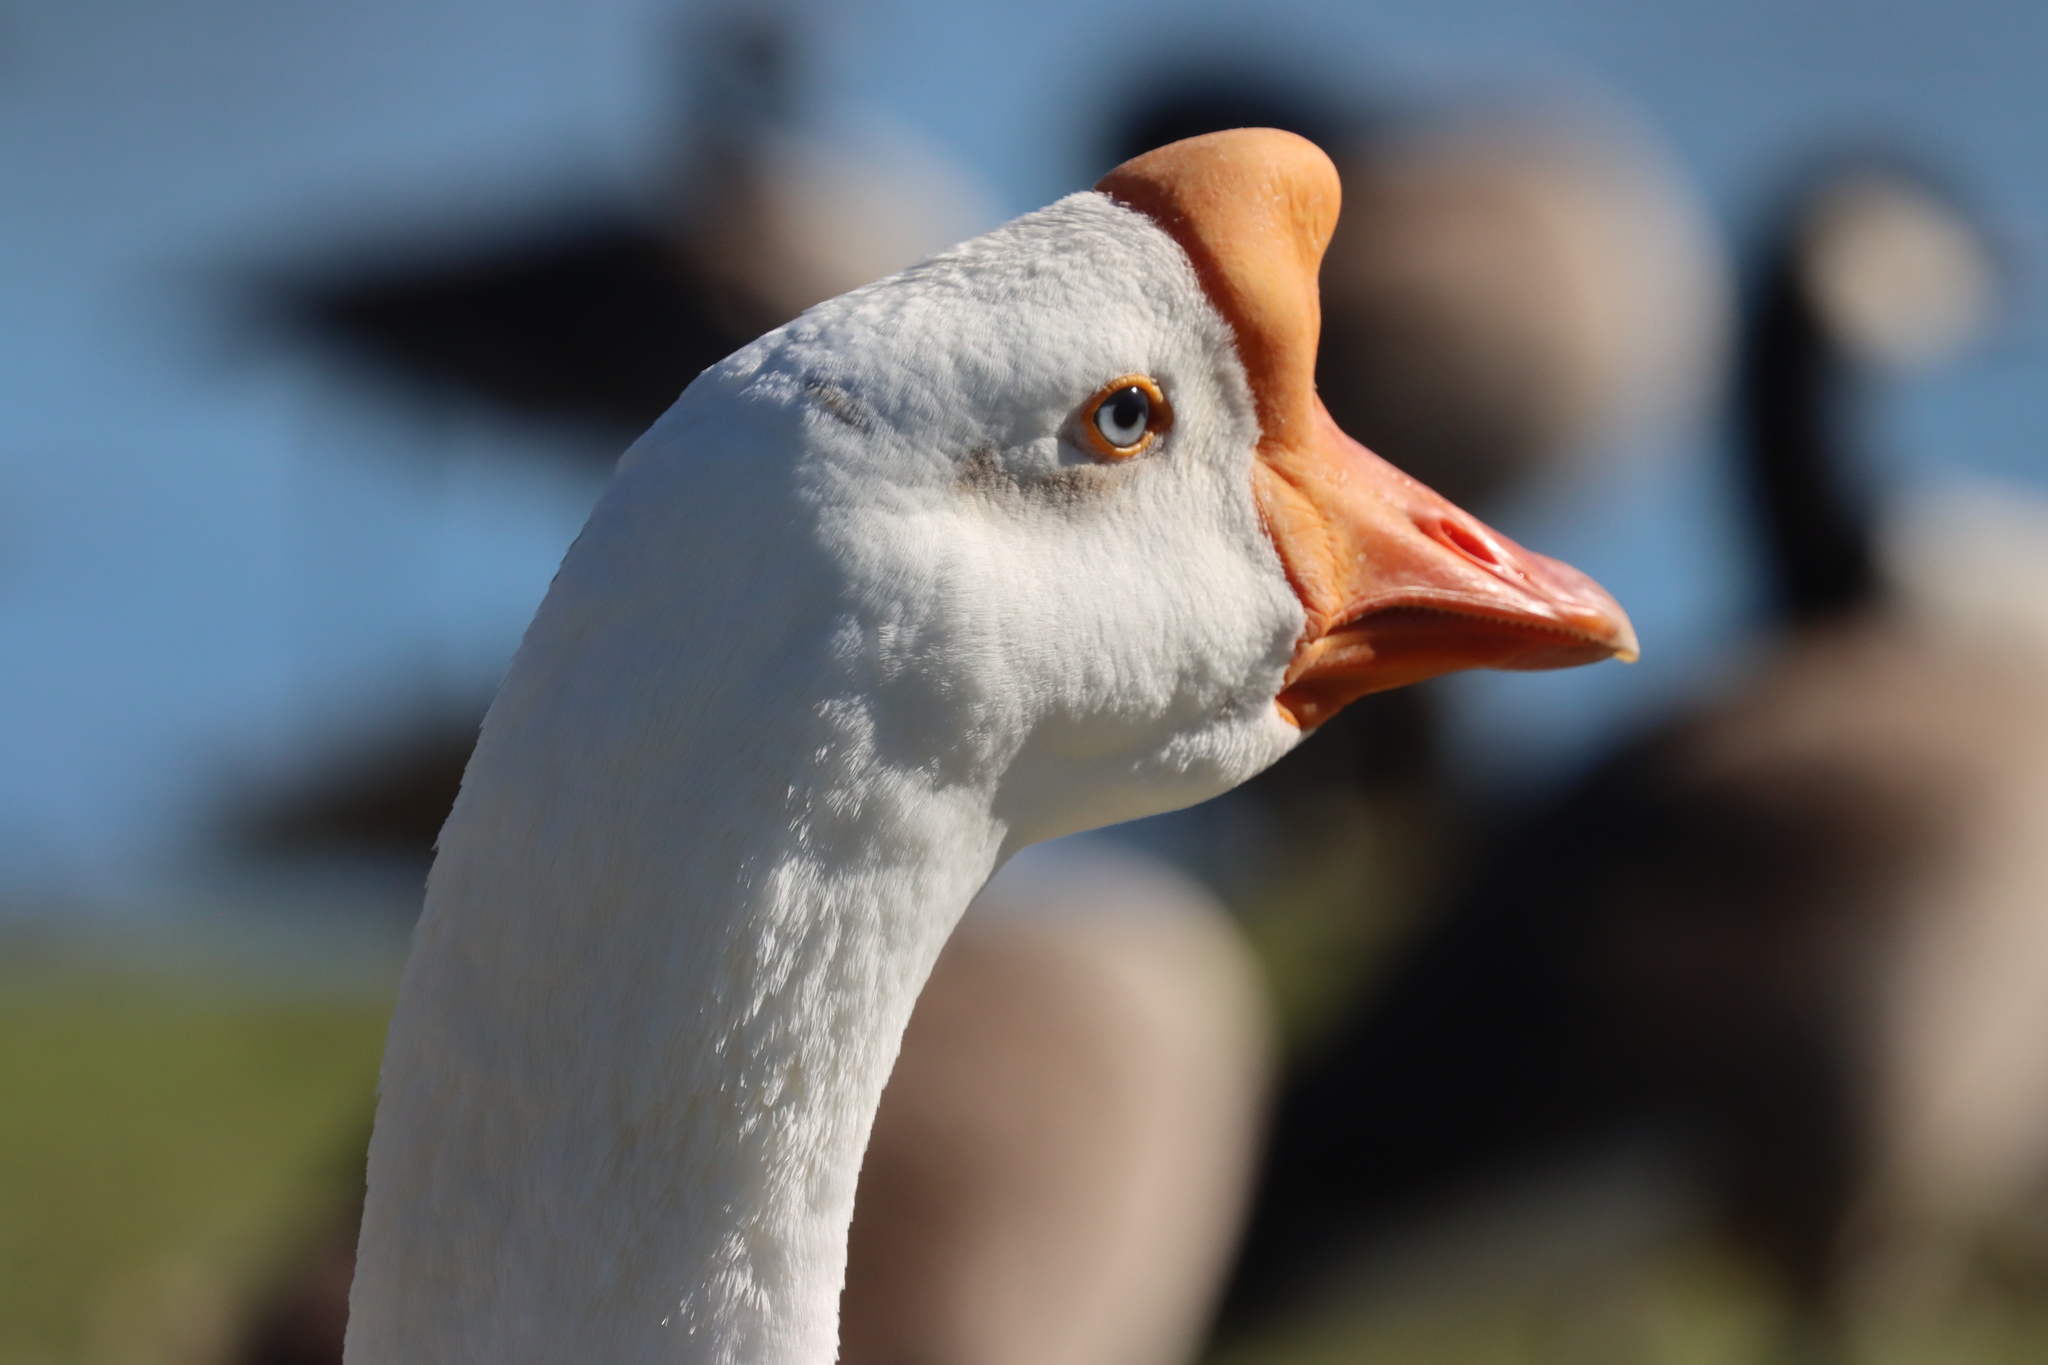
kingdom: Animalia
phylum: Chordata
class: Aves
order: Anseriformes
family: Anatidae
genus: Anser
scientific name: Anser cygnoides
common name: Swan goose
